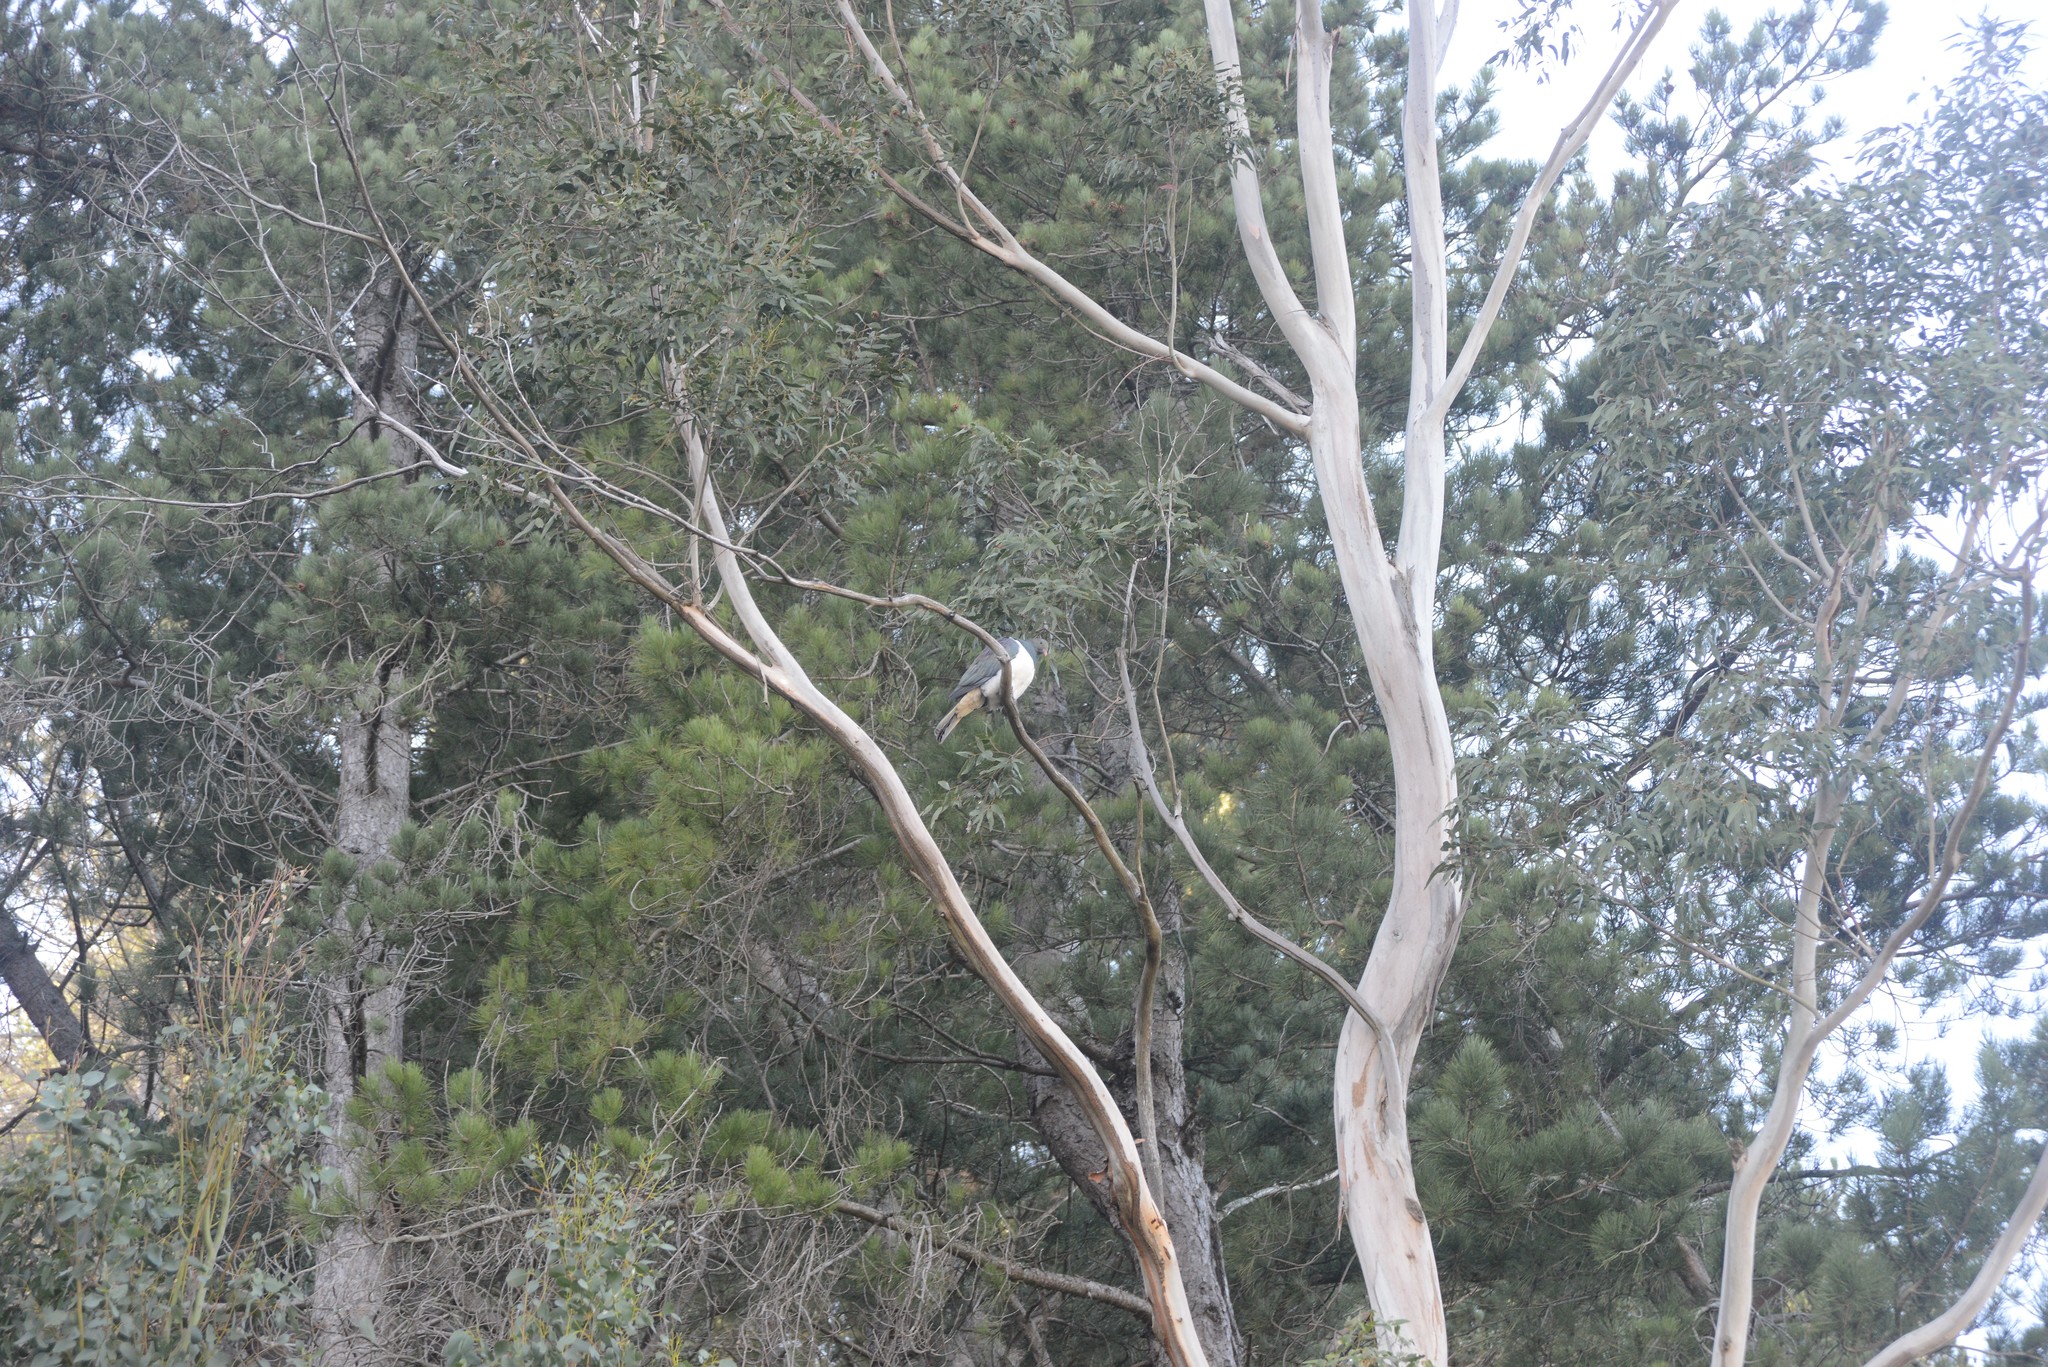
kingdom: Animalia
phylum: Chordata
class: Aves
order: Columbiformes
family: Columbidae
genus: Hemiphaga
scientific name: Hemiphaga novaeseelandiae
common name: New zealand pigeon
